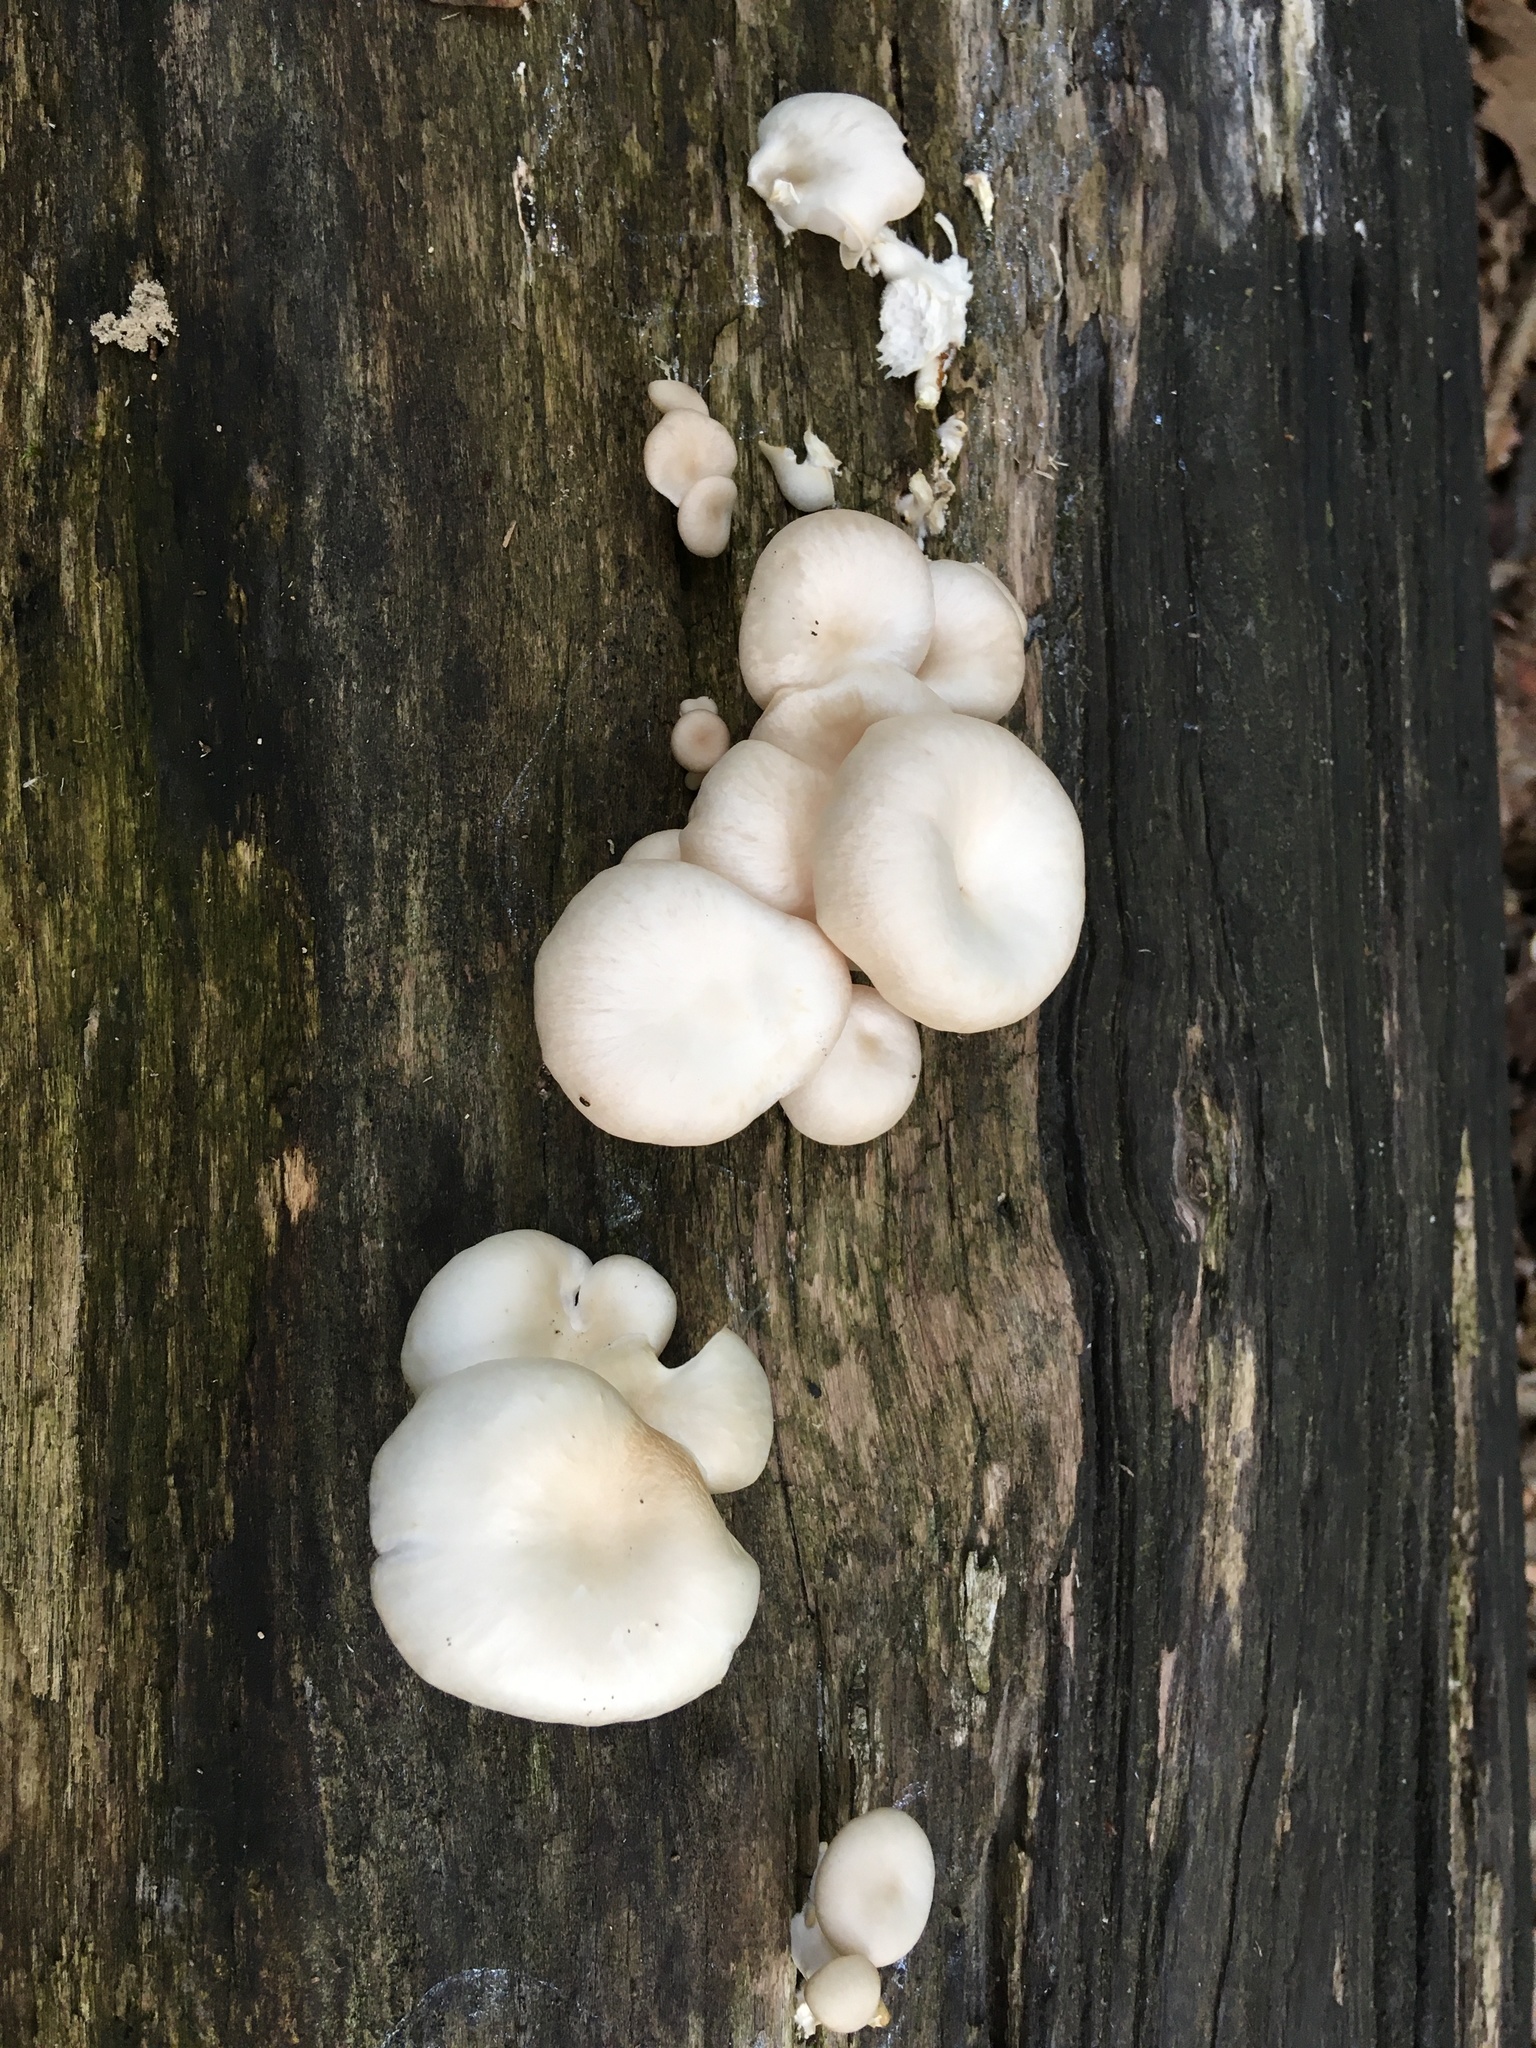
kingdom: Fungi
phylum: Basidiomycota
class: Agaricomycetes
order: Agaricales
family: Pleurotaceae
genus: Pleurotus
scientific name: Pleurotus pulmonarius
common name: Pale oyster
